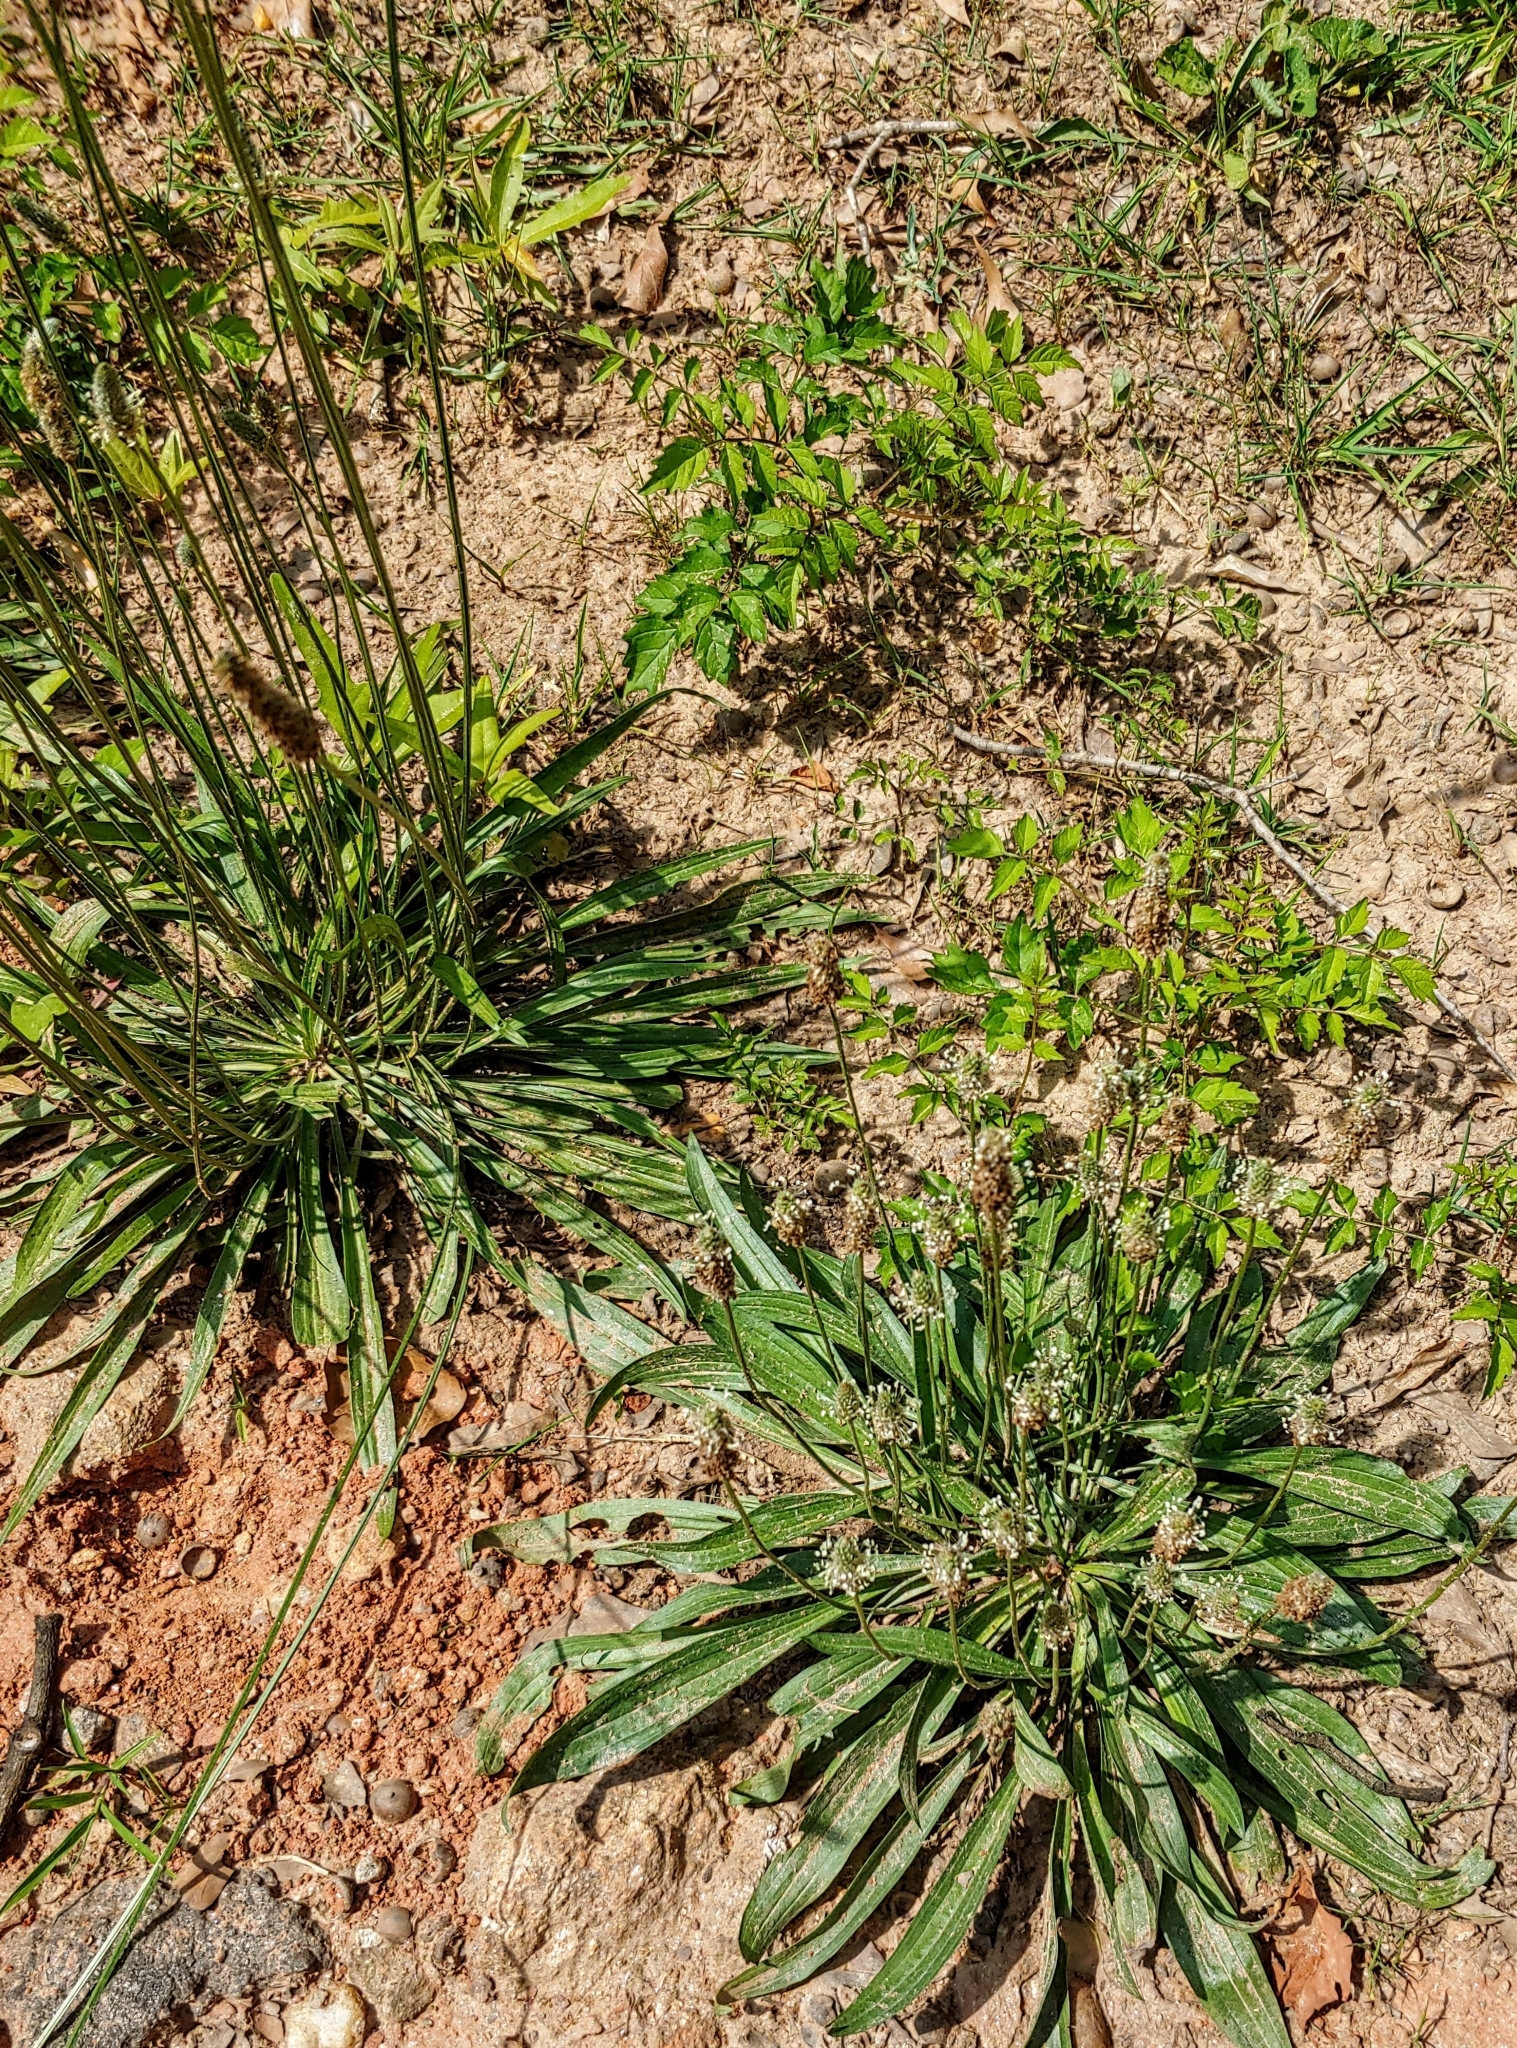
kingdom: Plantae
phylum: Tracheophyta
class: Magnoliopsida
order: Lamiales
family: Plantaginaceae
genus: Plantago
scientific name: Plantago lanceolata
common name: Ribwort plantain
